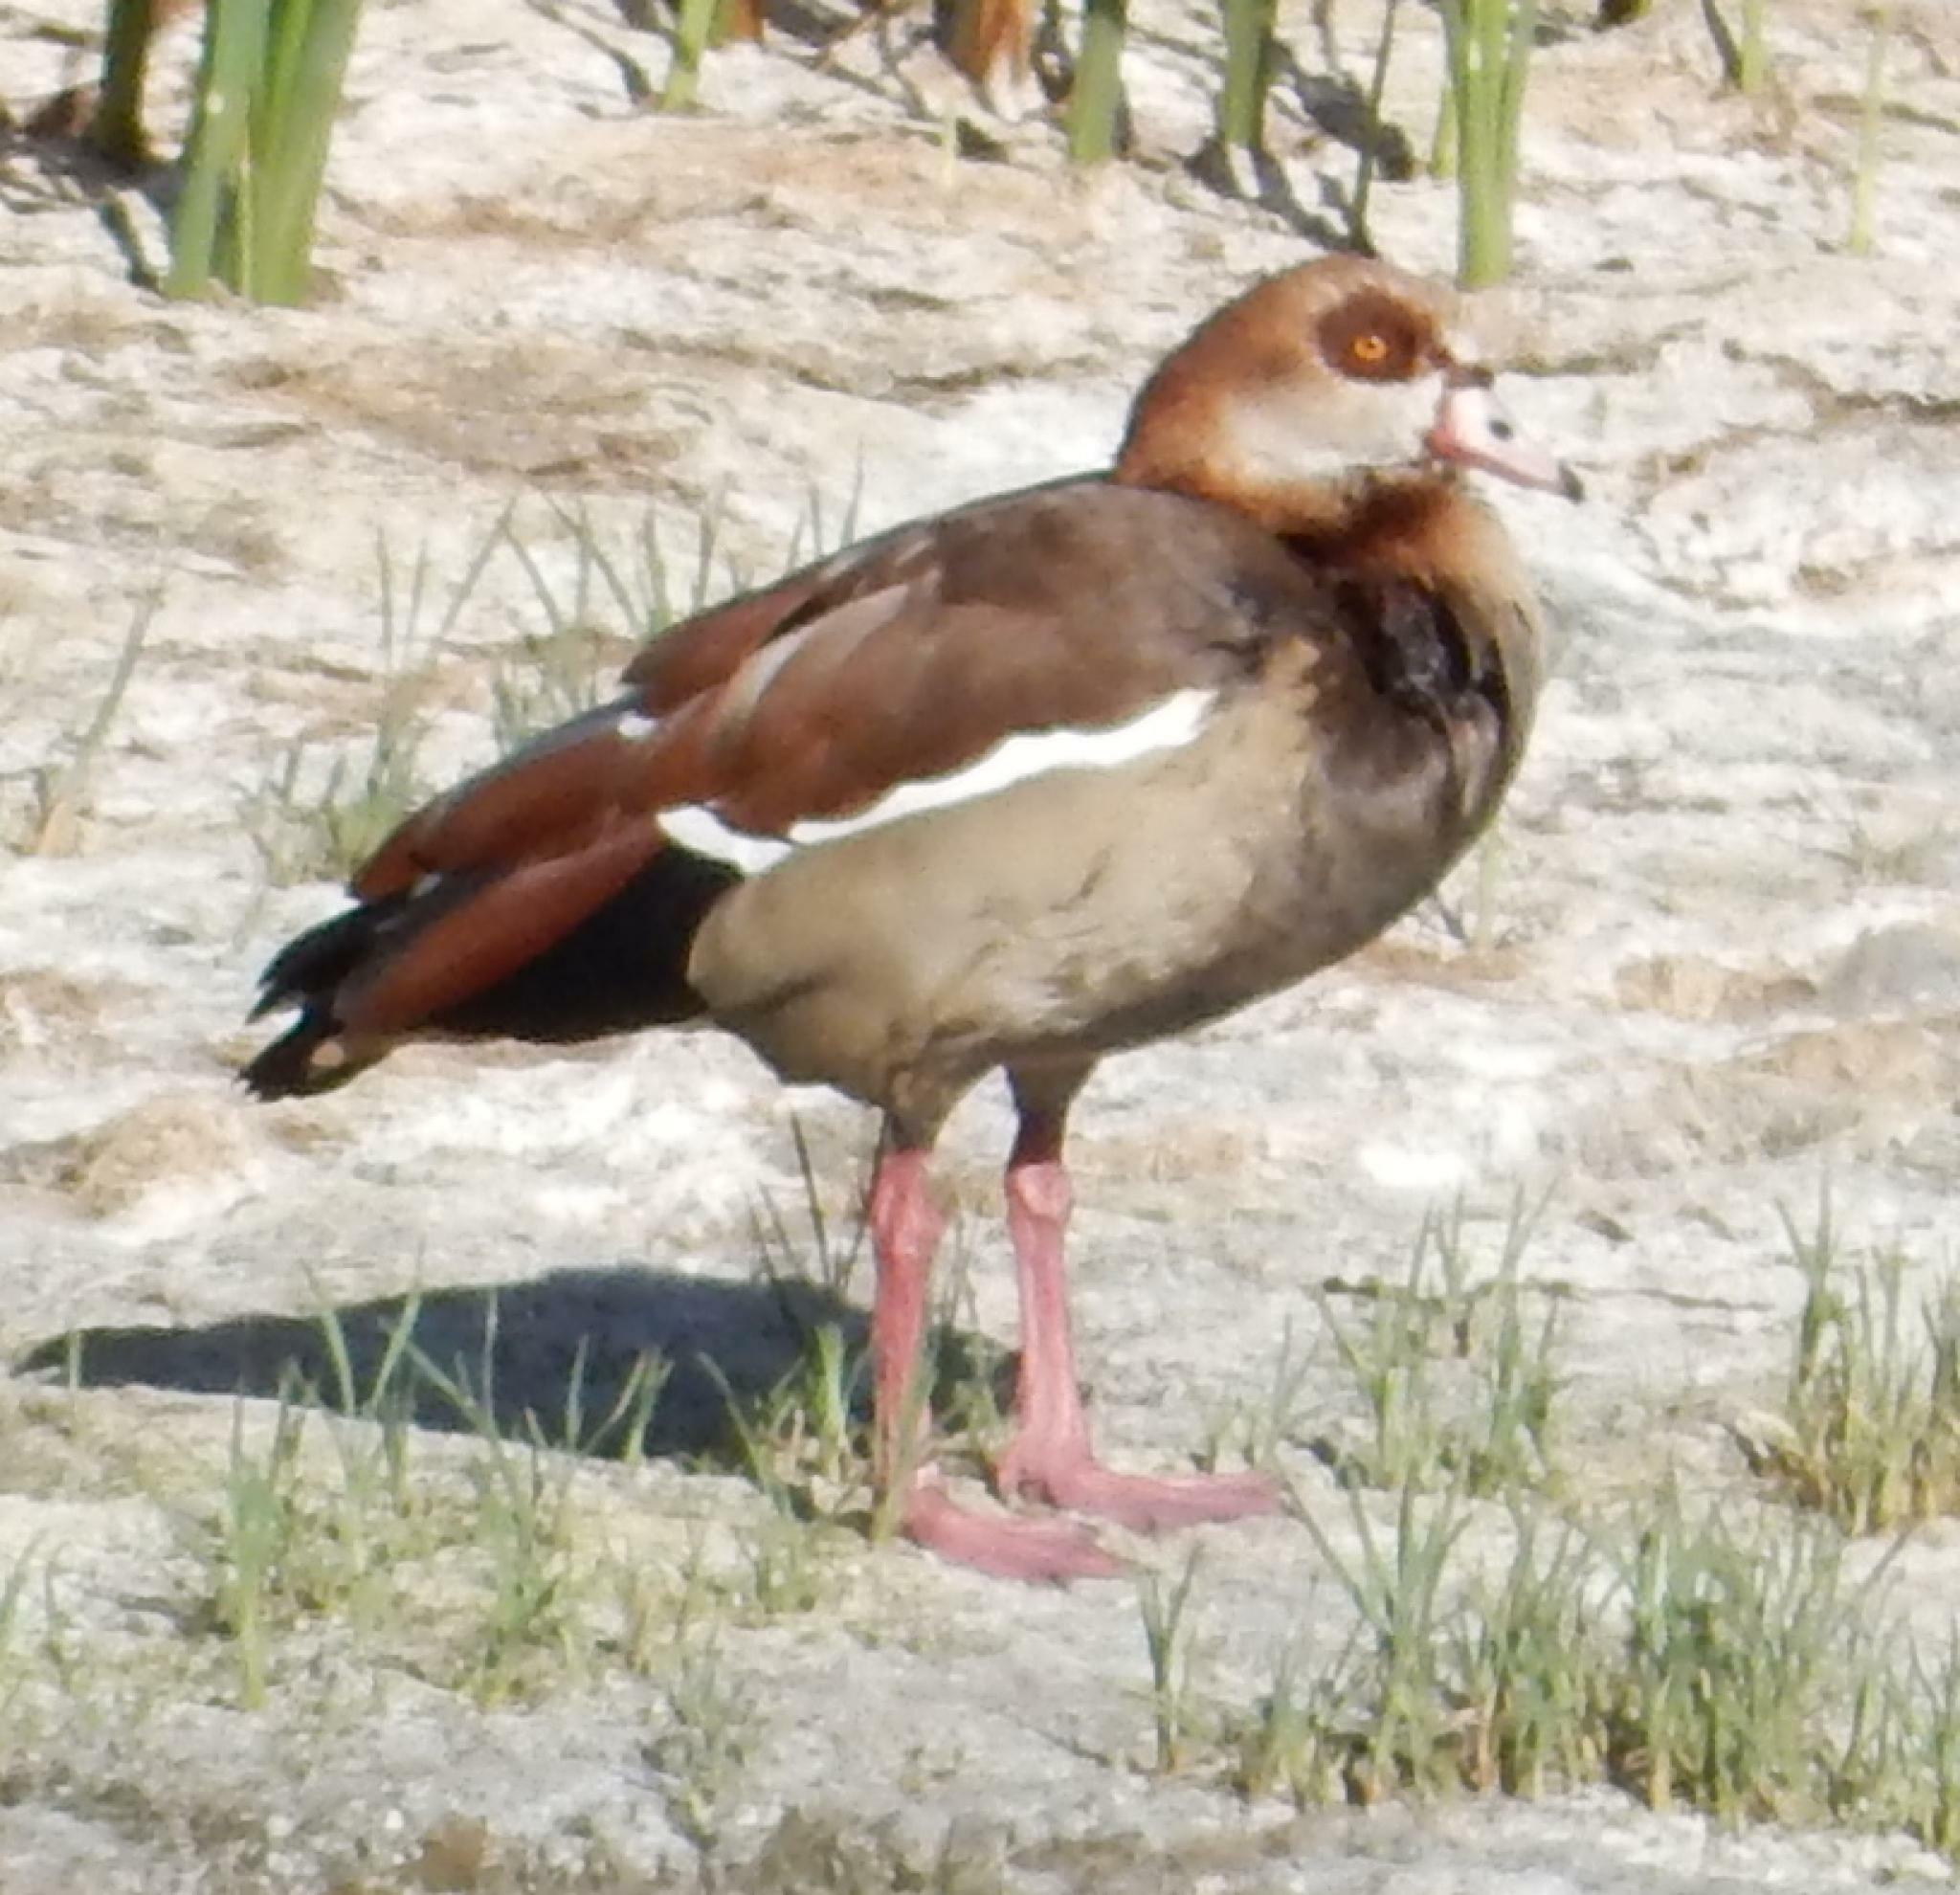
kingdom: Animalia
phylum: Chordata
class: Aves
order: Anseriformes
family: Anatidae
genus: Alopochen
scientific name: Alopochen aegyptiaca
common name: Egyptian goose
